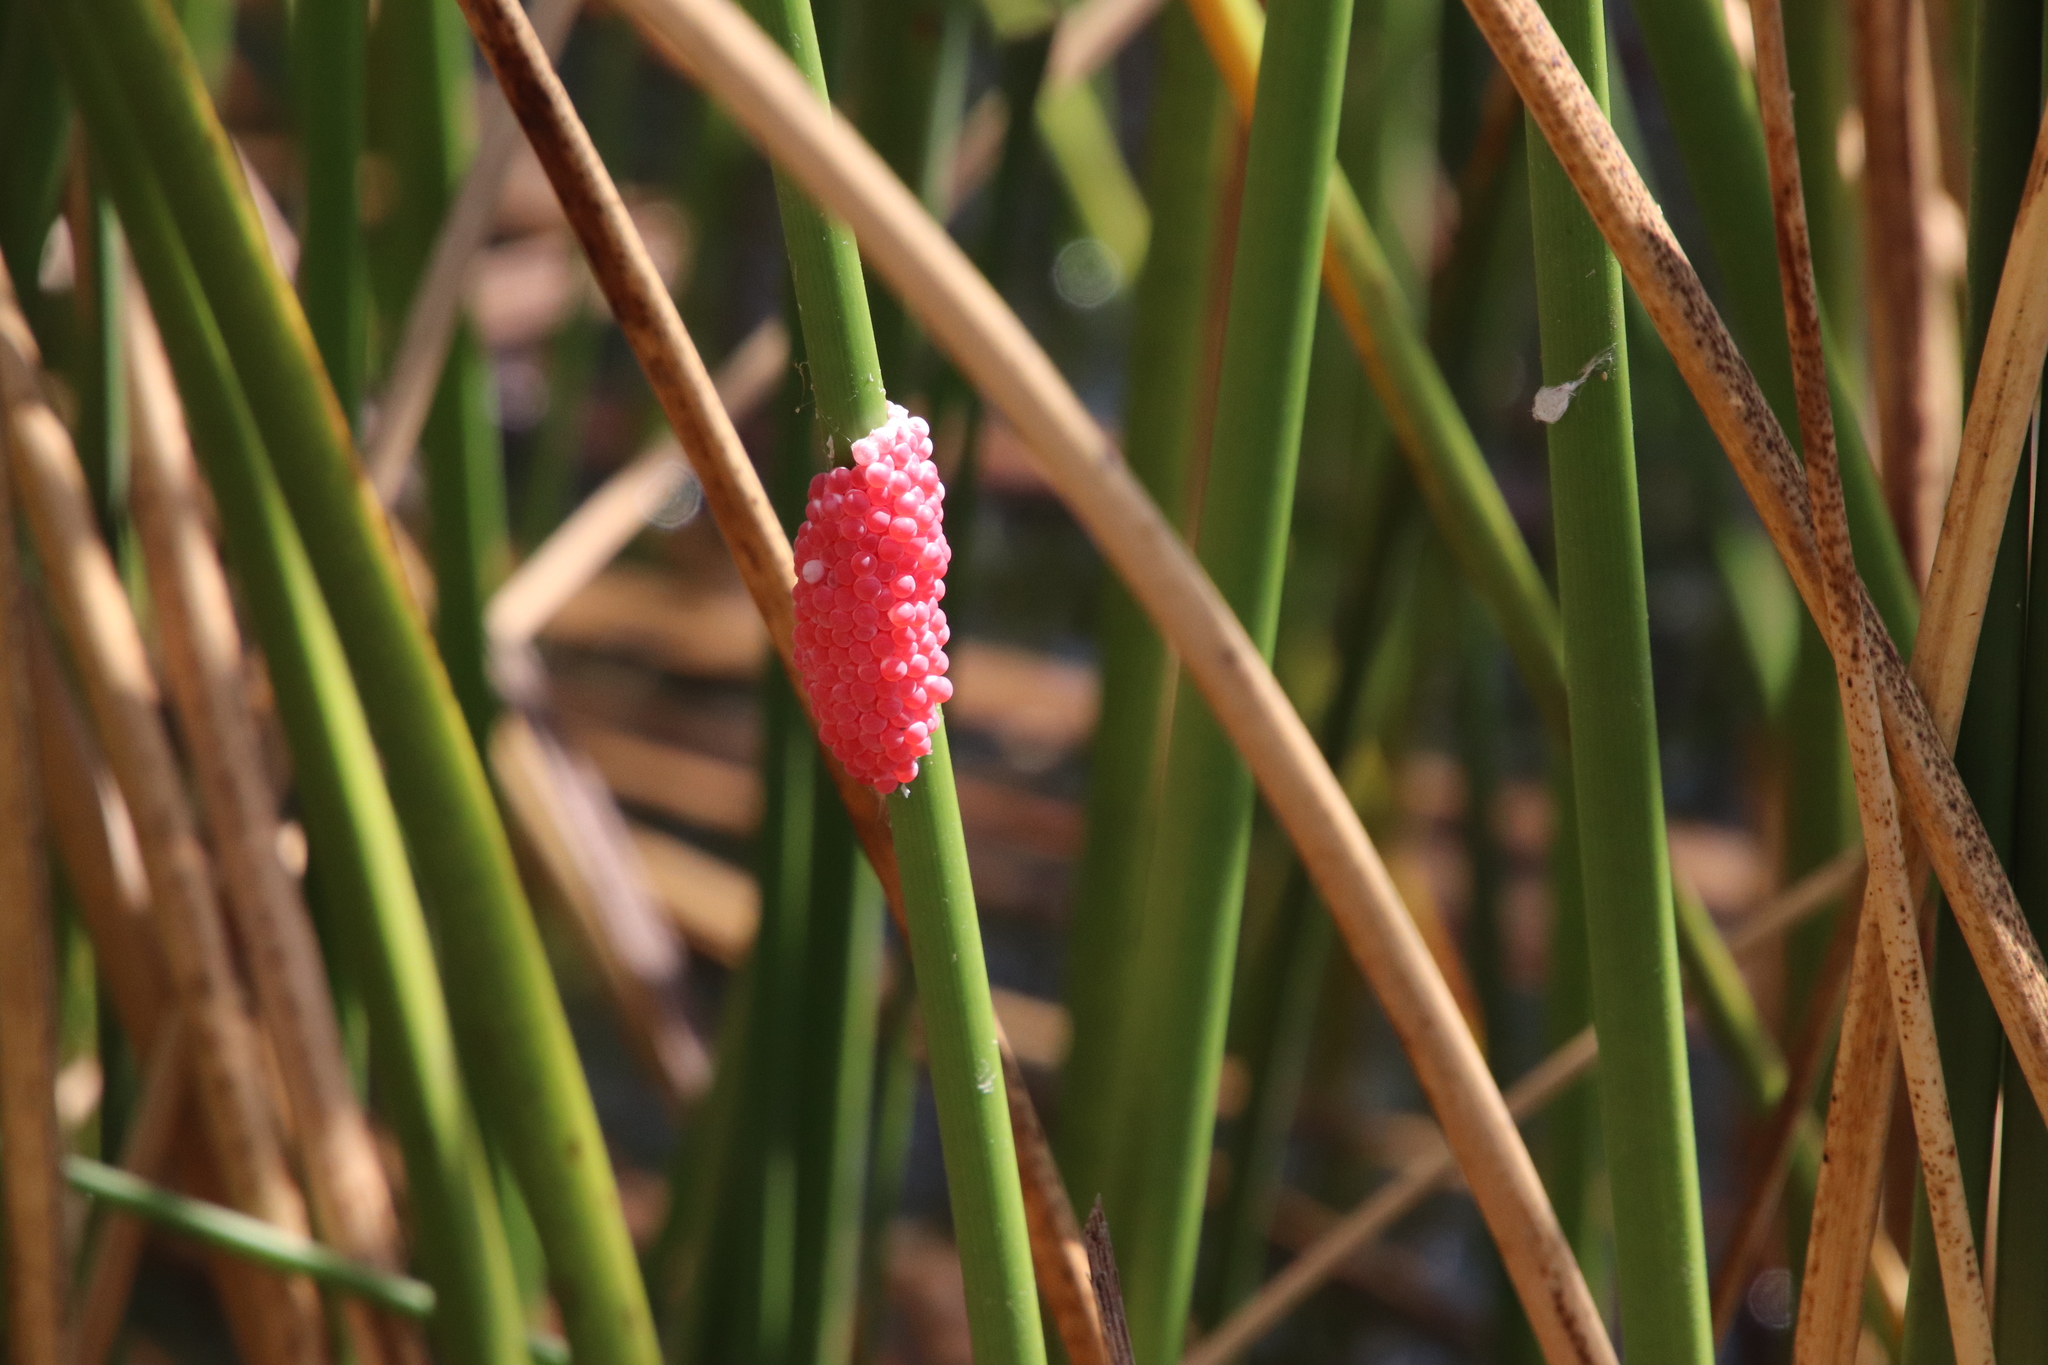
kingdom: Animalia
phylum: Mollusca
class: Gastropoda
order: Architaenioglossa
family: Ampullariidae
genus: Pomacea
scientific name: Pomacea canaliculata
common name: Channeled applesnail
